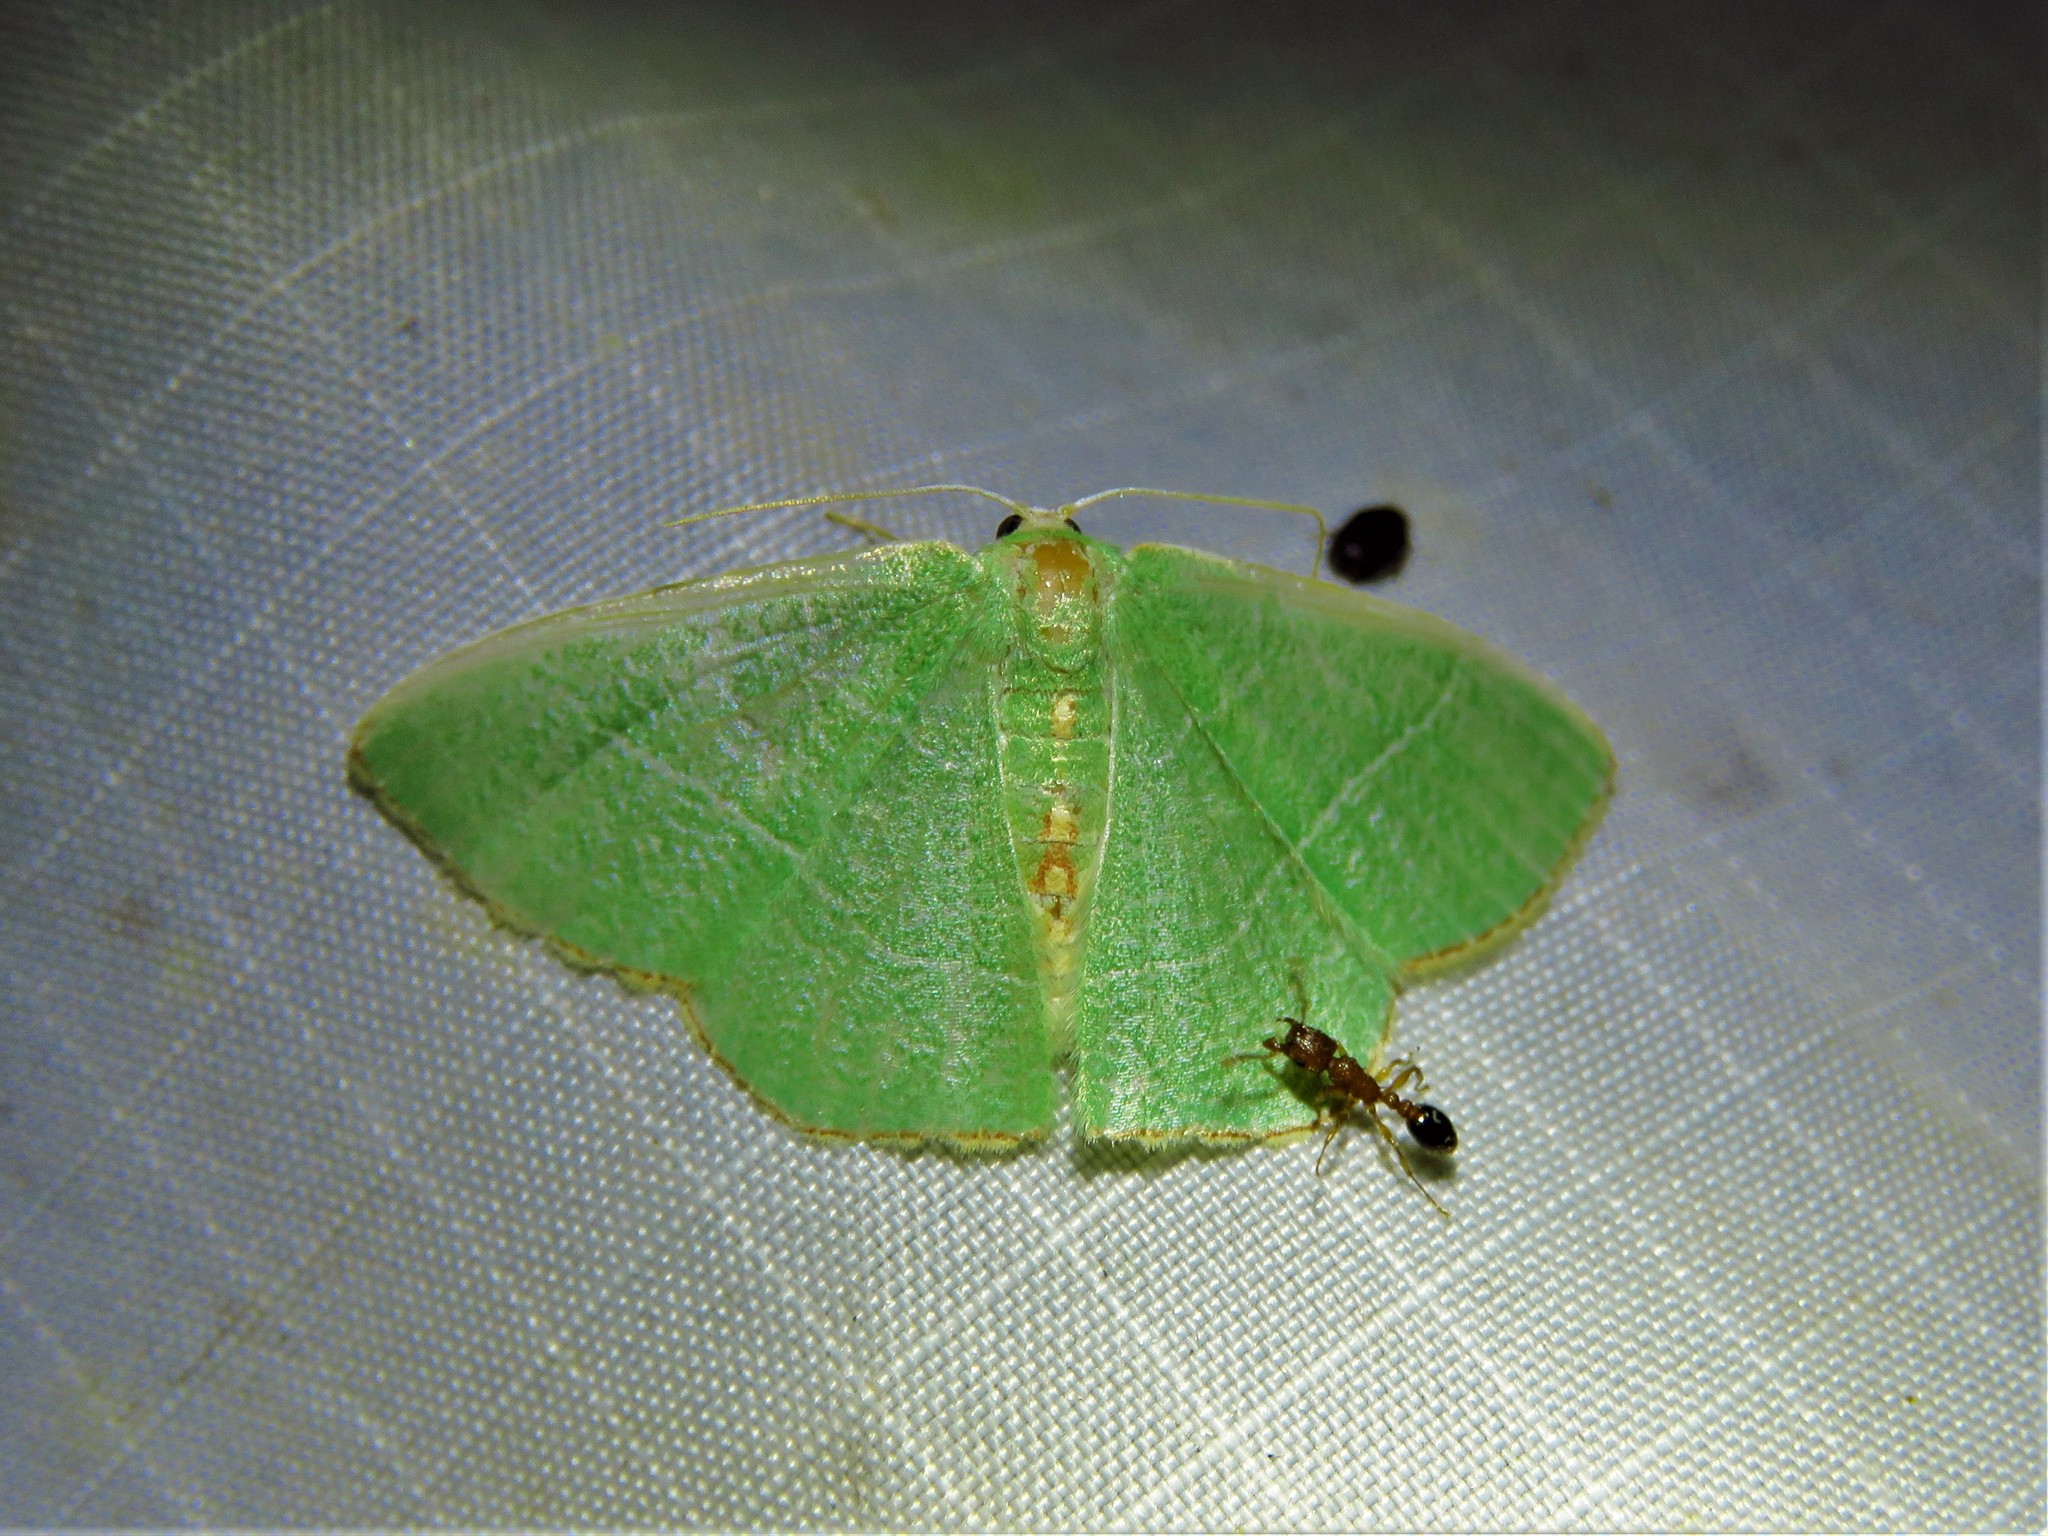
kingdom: Animalia
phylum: Arthropoda
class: Insecta
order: Lepidoptera
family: Geometridae
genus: Nemoria
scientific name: Nemoria bistriaria
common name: Red-fringed emerald
